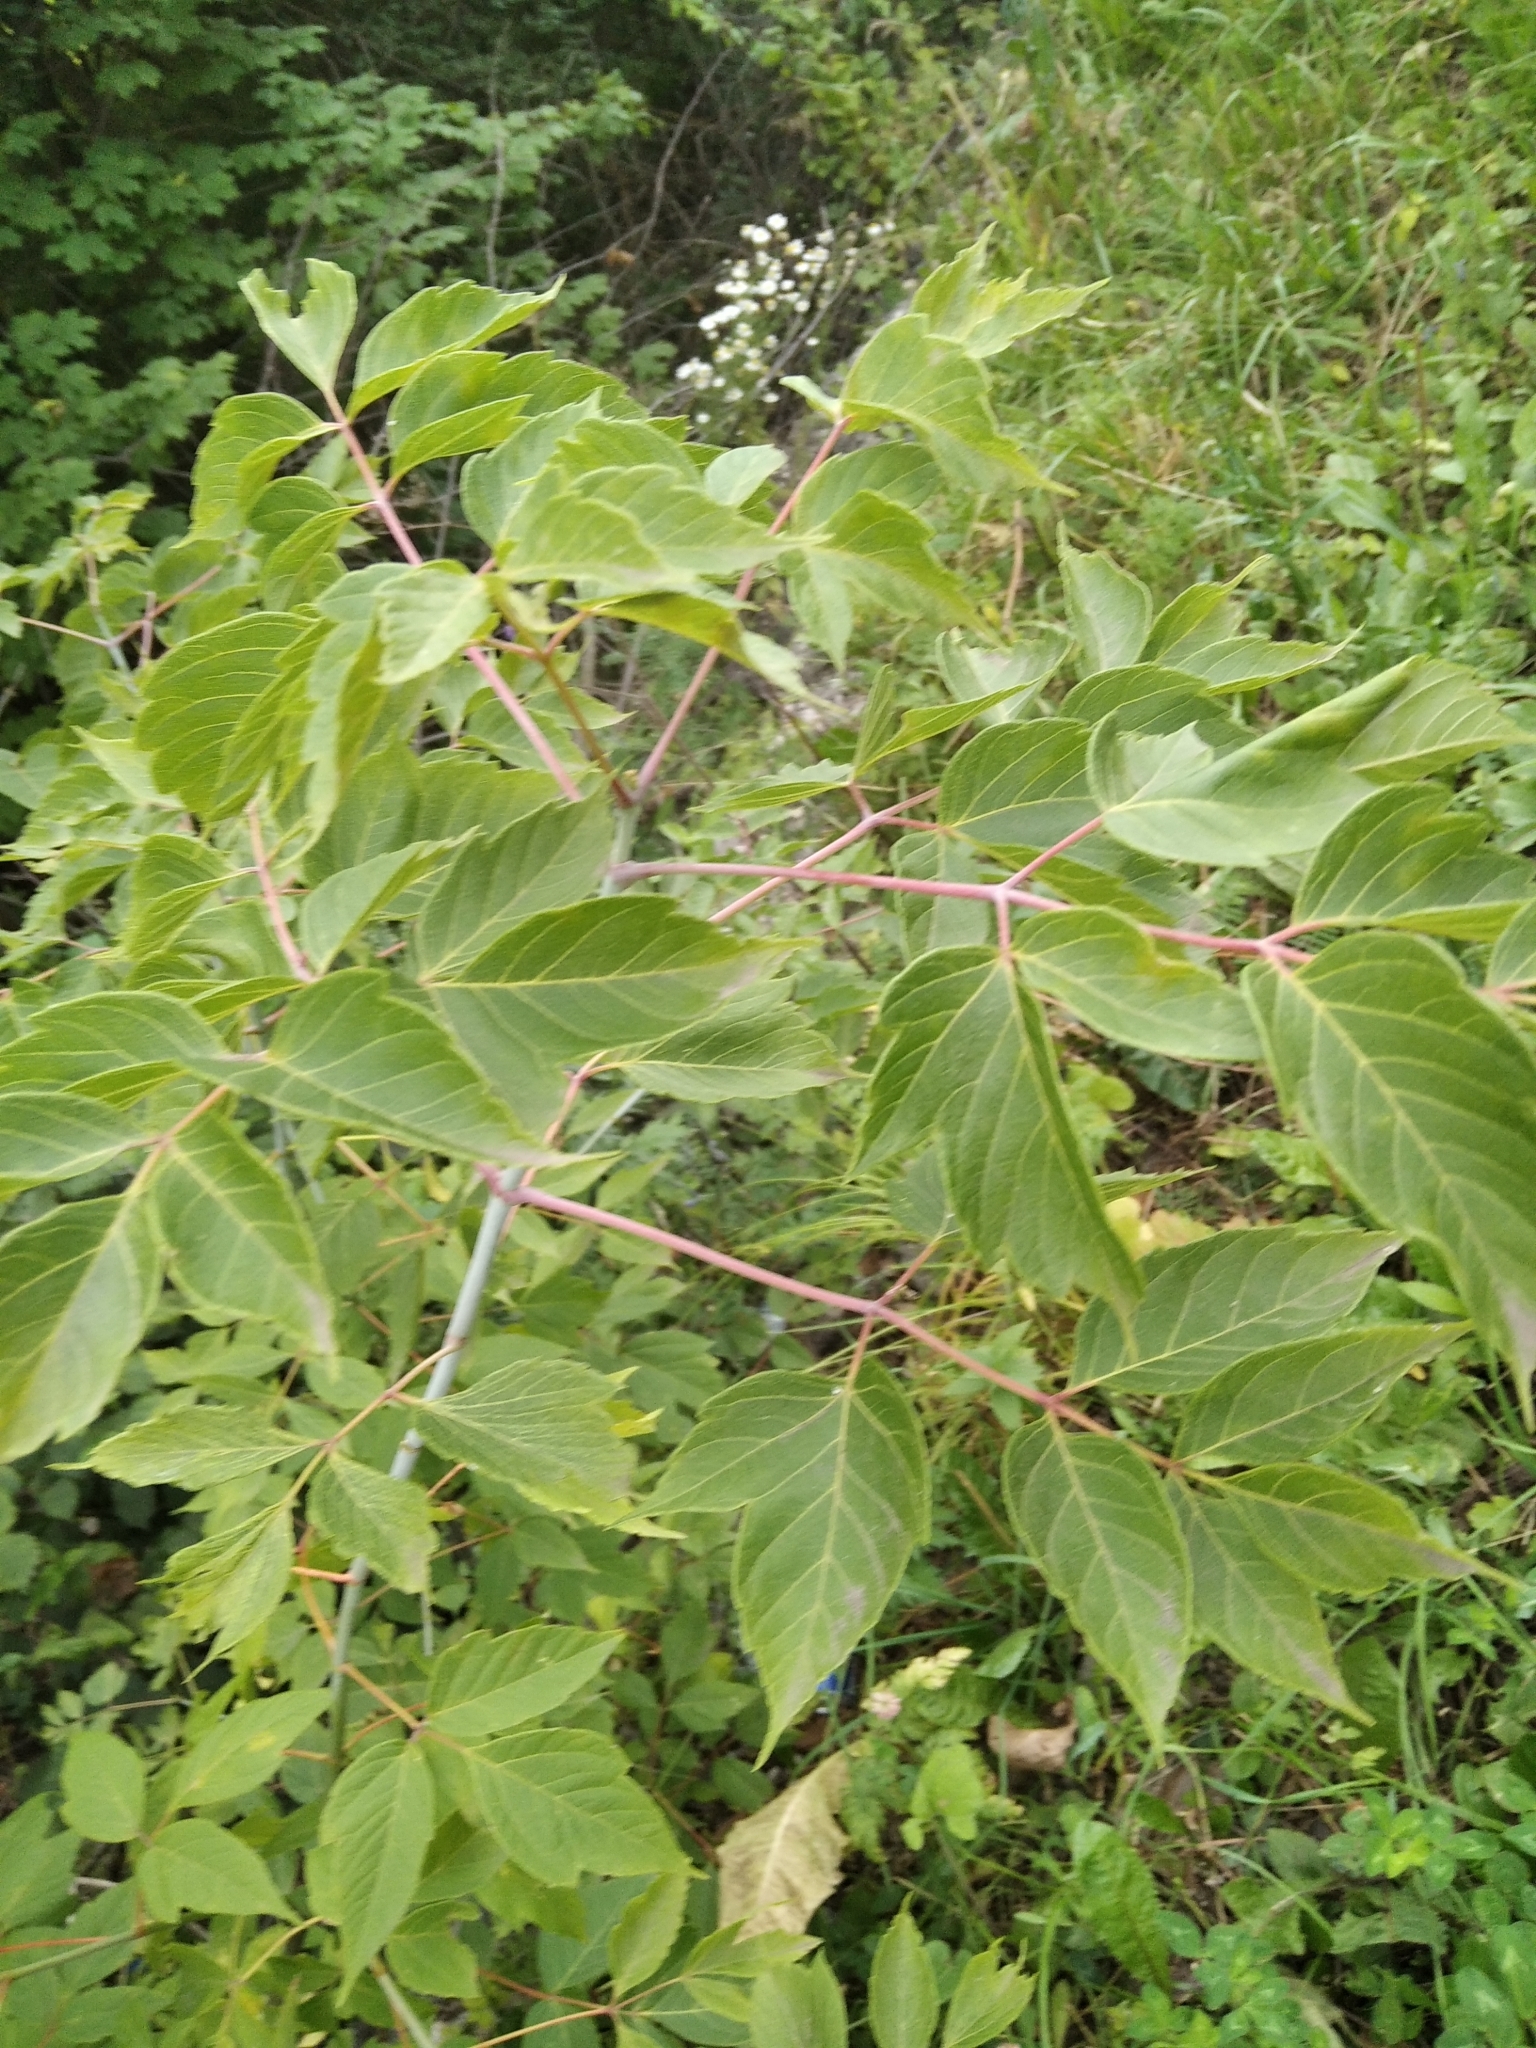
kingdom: Plantae
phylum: Tracheophyta
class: Magnoliopsida
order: Sapindales
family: Sapindaceae
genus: Acer
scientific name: Acer negundo
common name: Ashleaf maple
